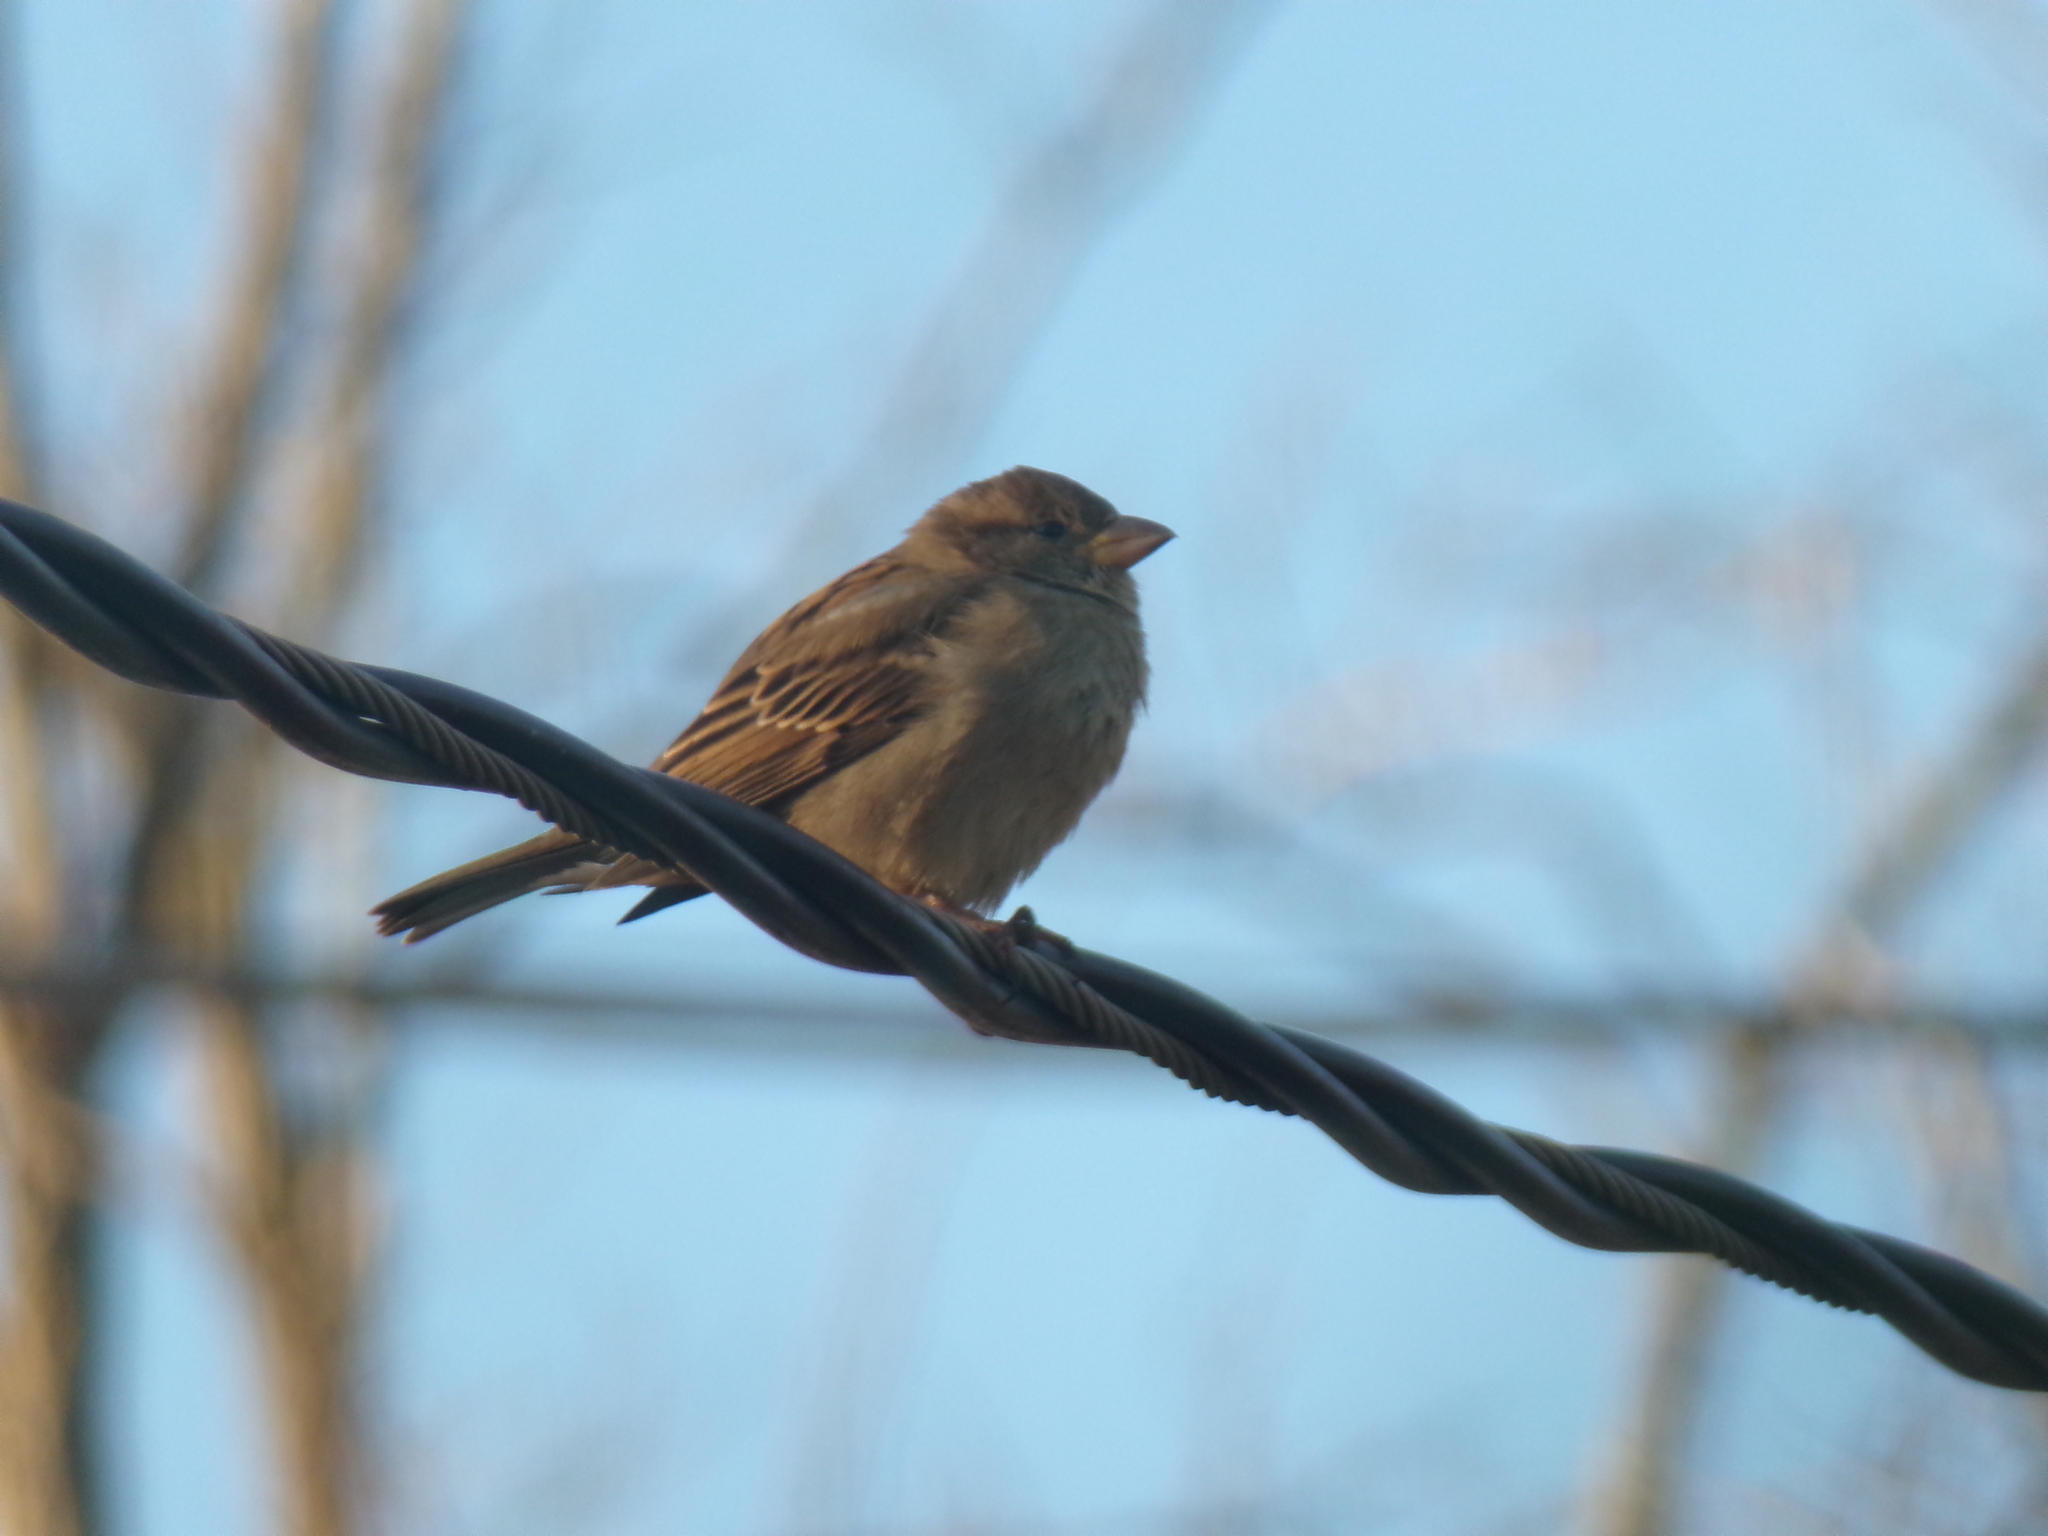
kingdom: Animalia
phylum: Chordata
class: Aves
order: Passeriformes
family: Passeridae
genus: Passer
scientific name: Passer domesticus
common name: House sparrow
